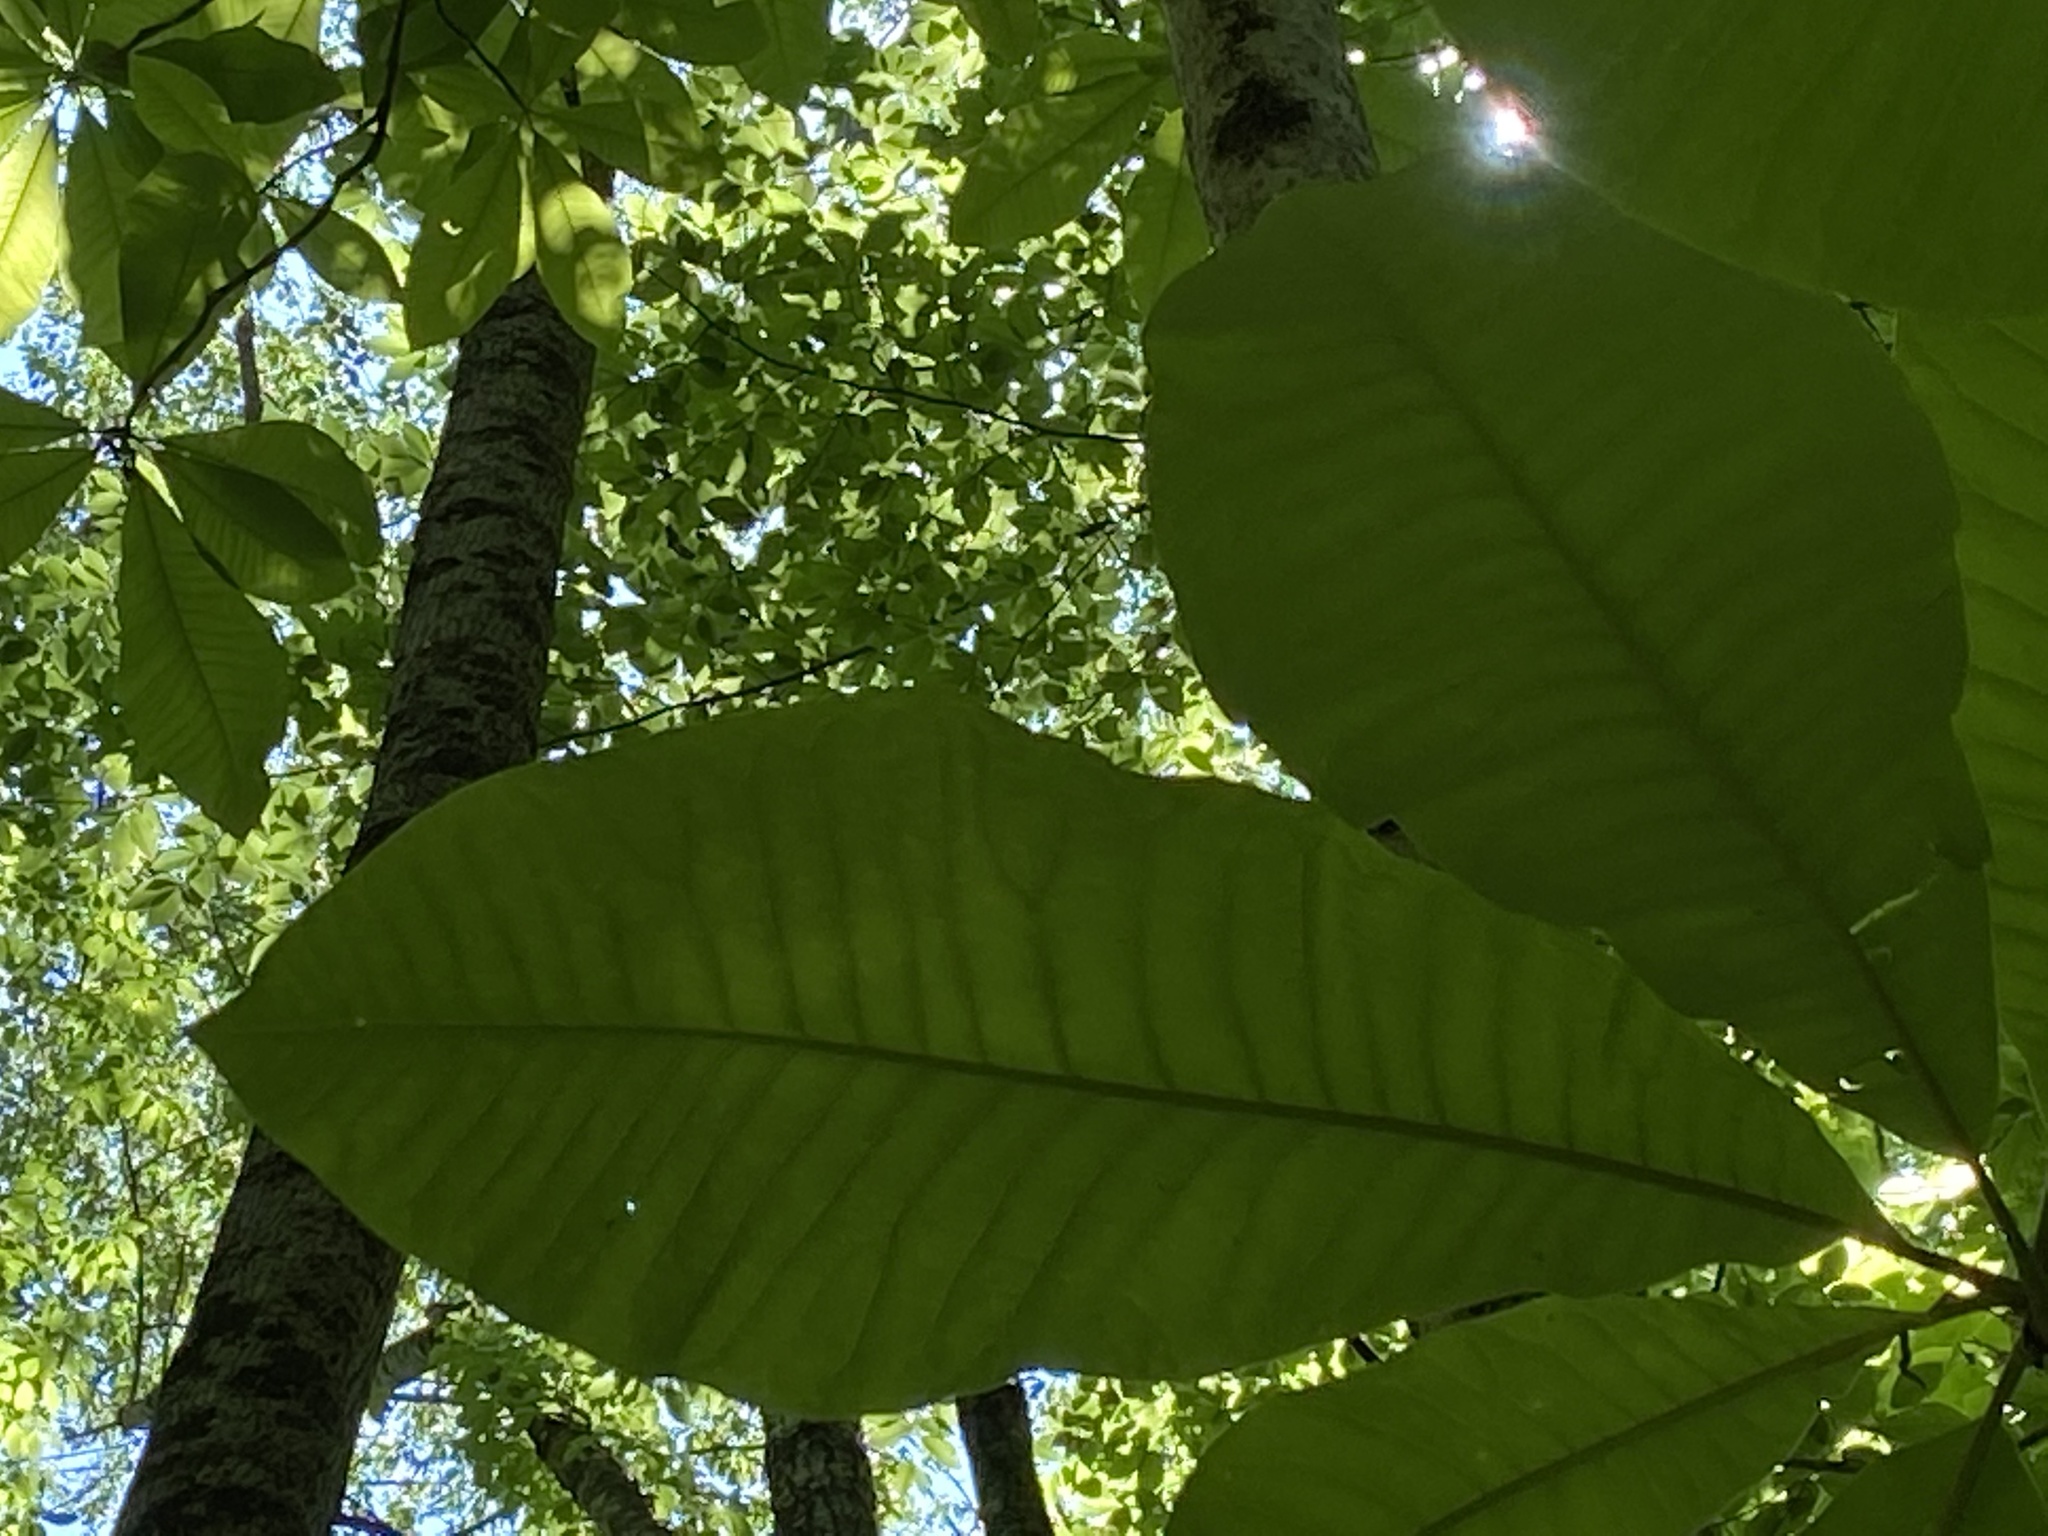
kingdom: Plantae
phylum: Tracheophyta
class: Magnoliopsida
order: Magnoliales
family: Magnoliaceae
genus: Magnolia
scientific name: Magnolia tripetala
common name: Umbrella magnolia
